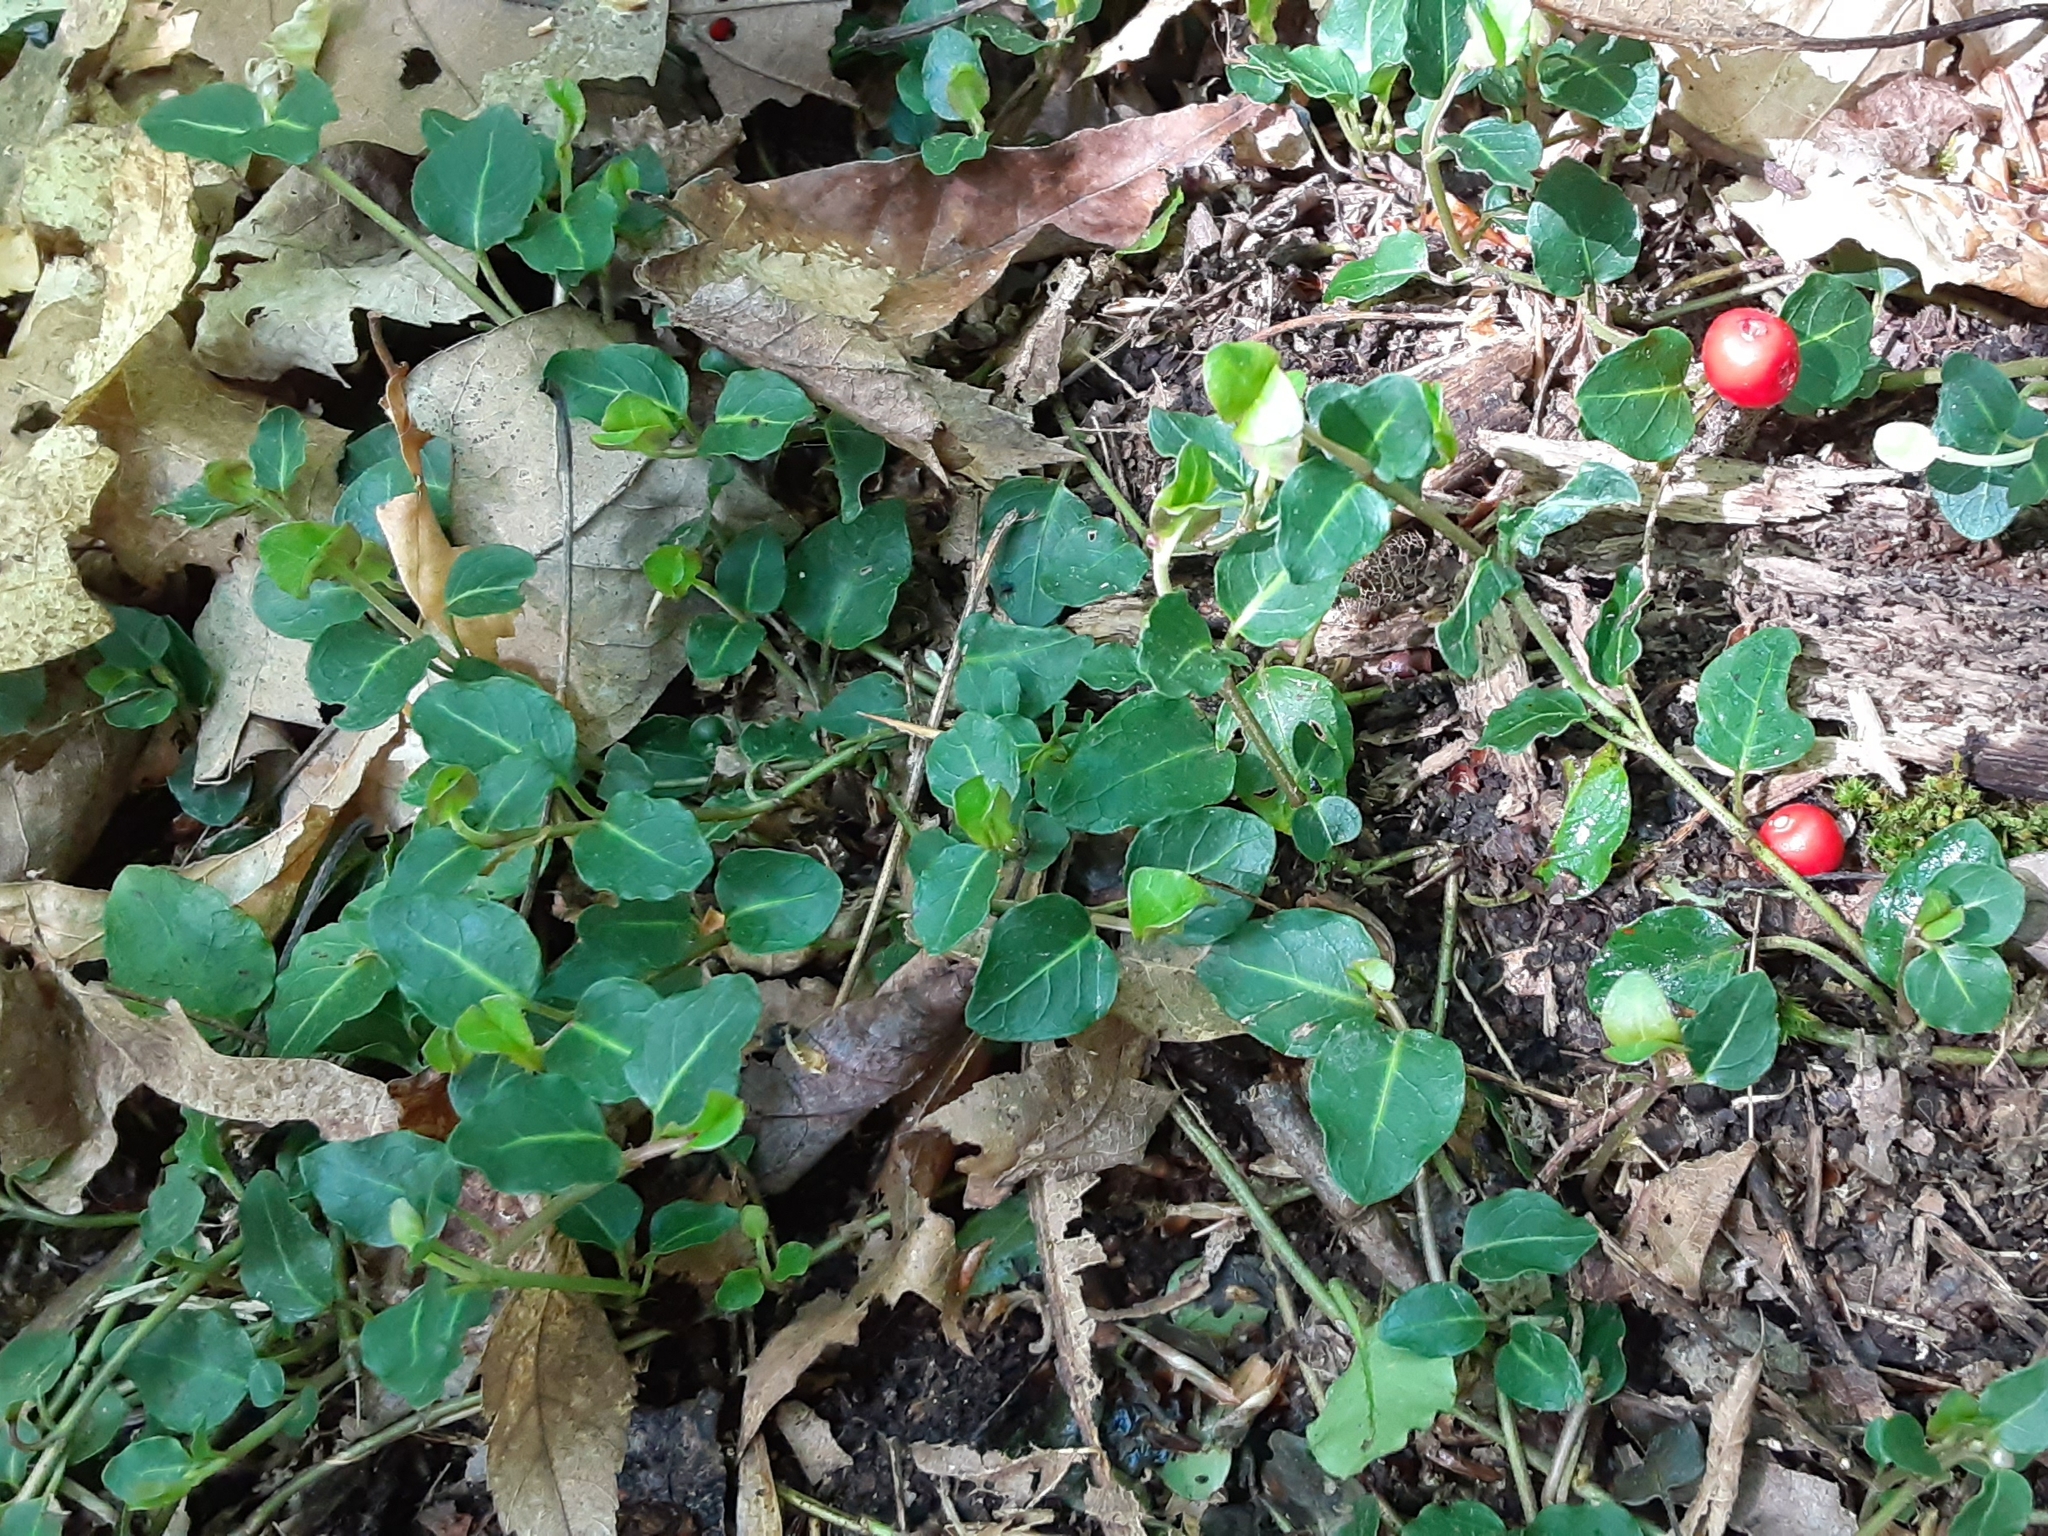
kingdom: Plantae
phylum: Tracheophyta
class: Magnoliopsida
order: Gentianales
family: Rubiaceae
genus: Mitchella
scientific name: Mitchella repens
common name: Partridge-berry
